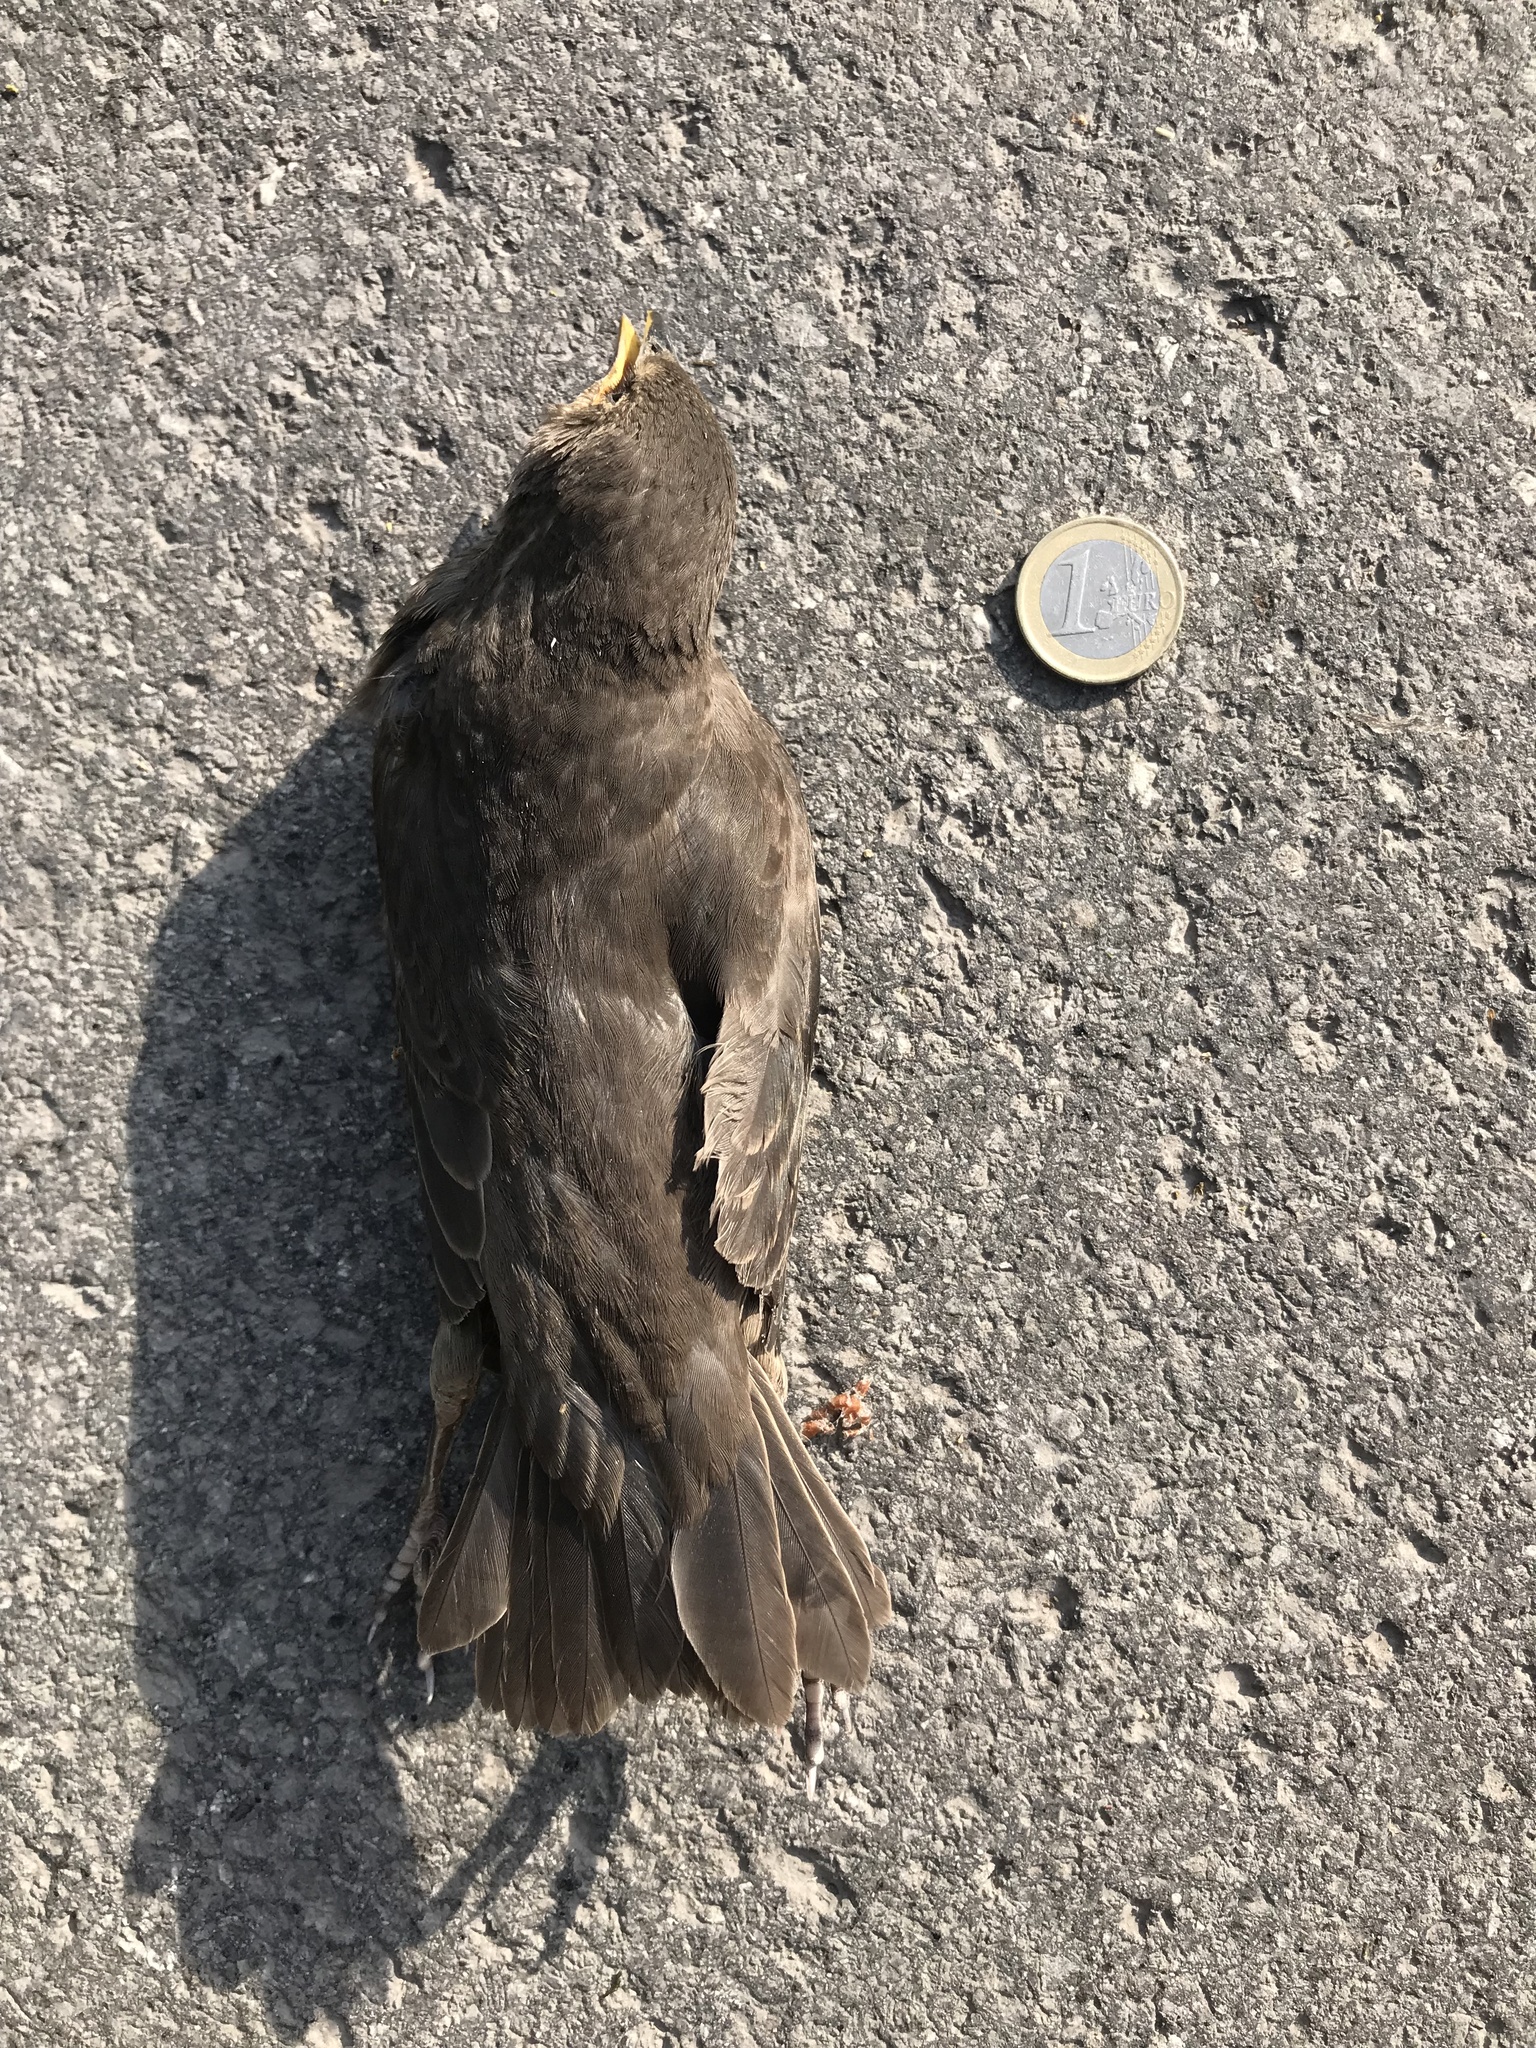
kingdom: Animalia
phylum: Chordata
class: Aves
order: Passeriformes
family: Sturnidae
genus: Sturnus
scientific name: Sturnus vulgaris
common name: Common starling
